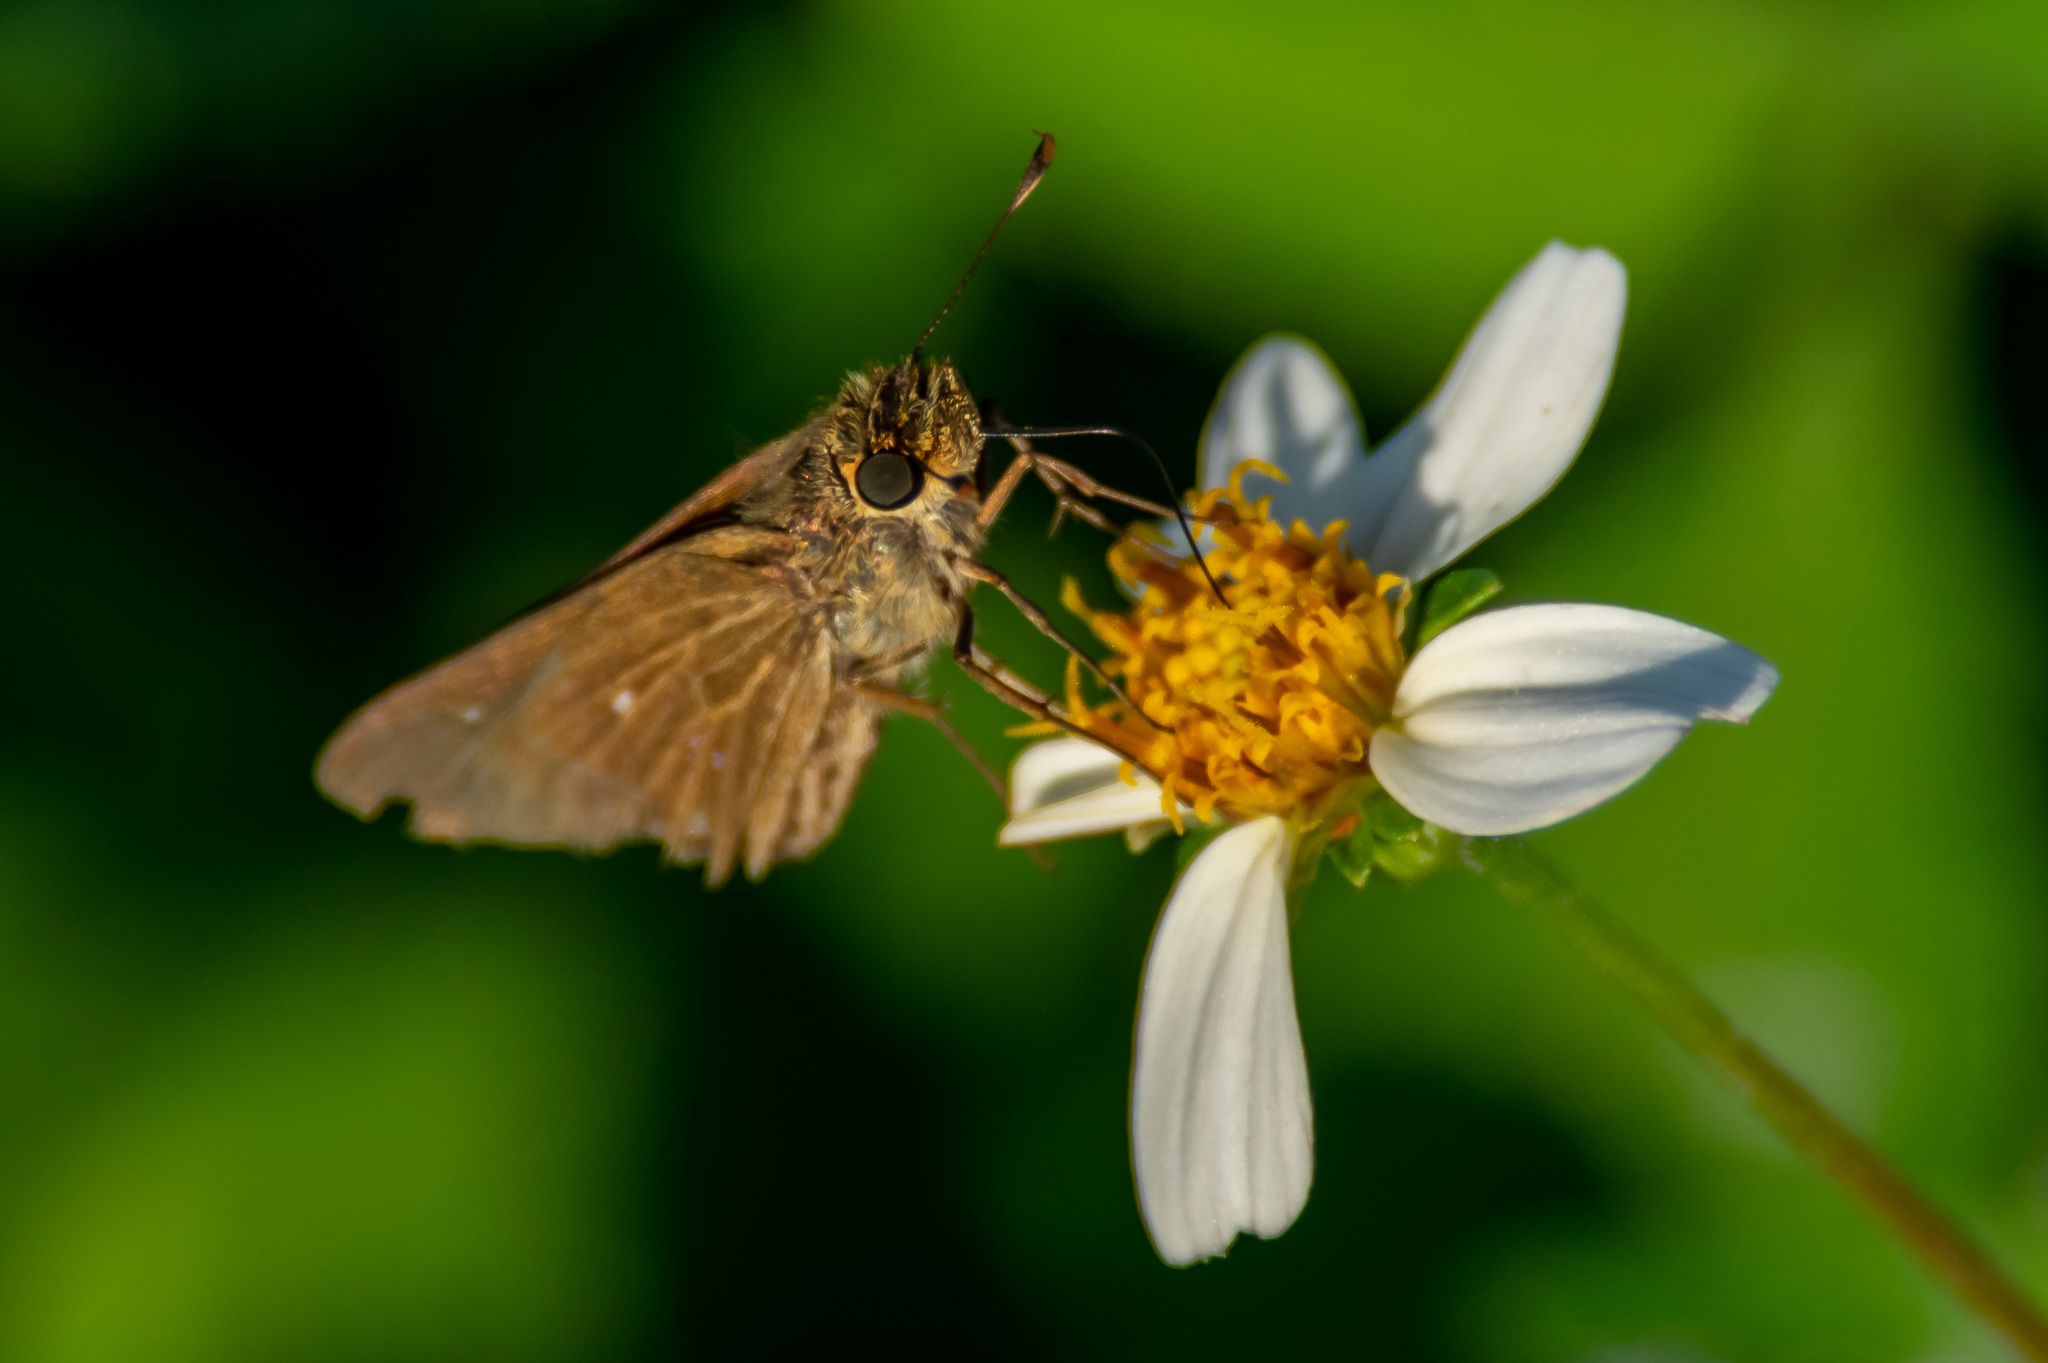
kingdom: Animalia
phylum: Arthropoda
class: Insecta
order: Lepidoptera
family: Hesperiidae
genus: Panoquina
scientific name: Panoquina ocola
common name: Ocola skipper
